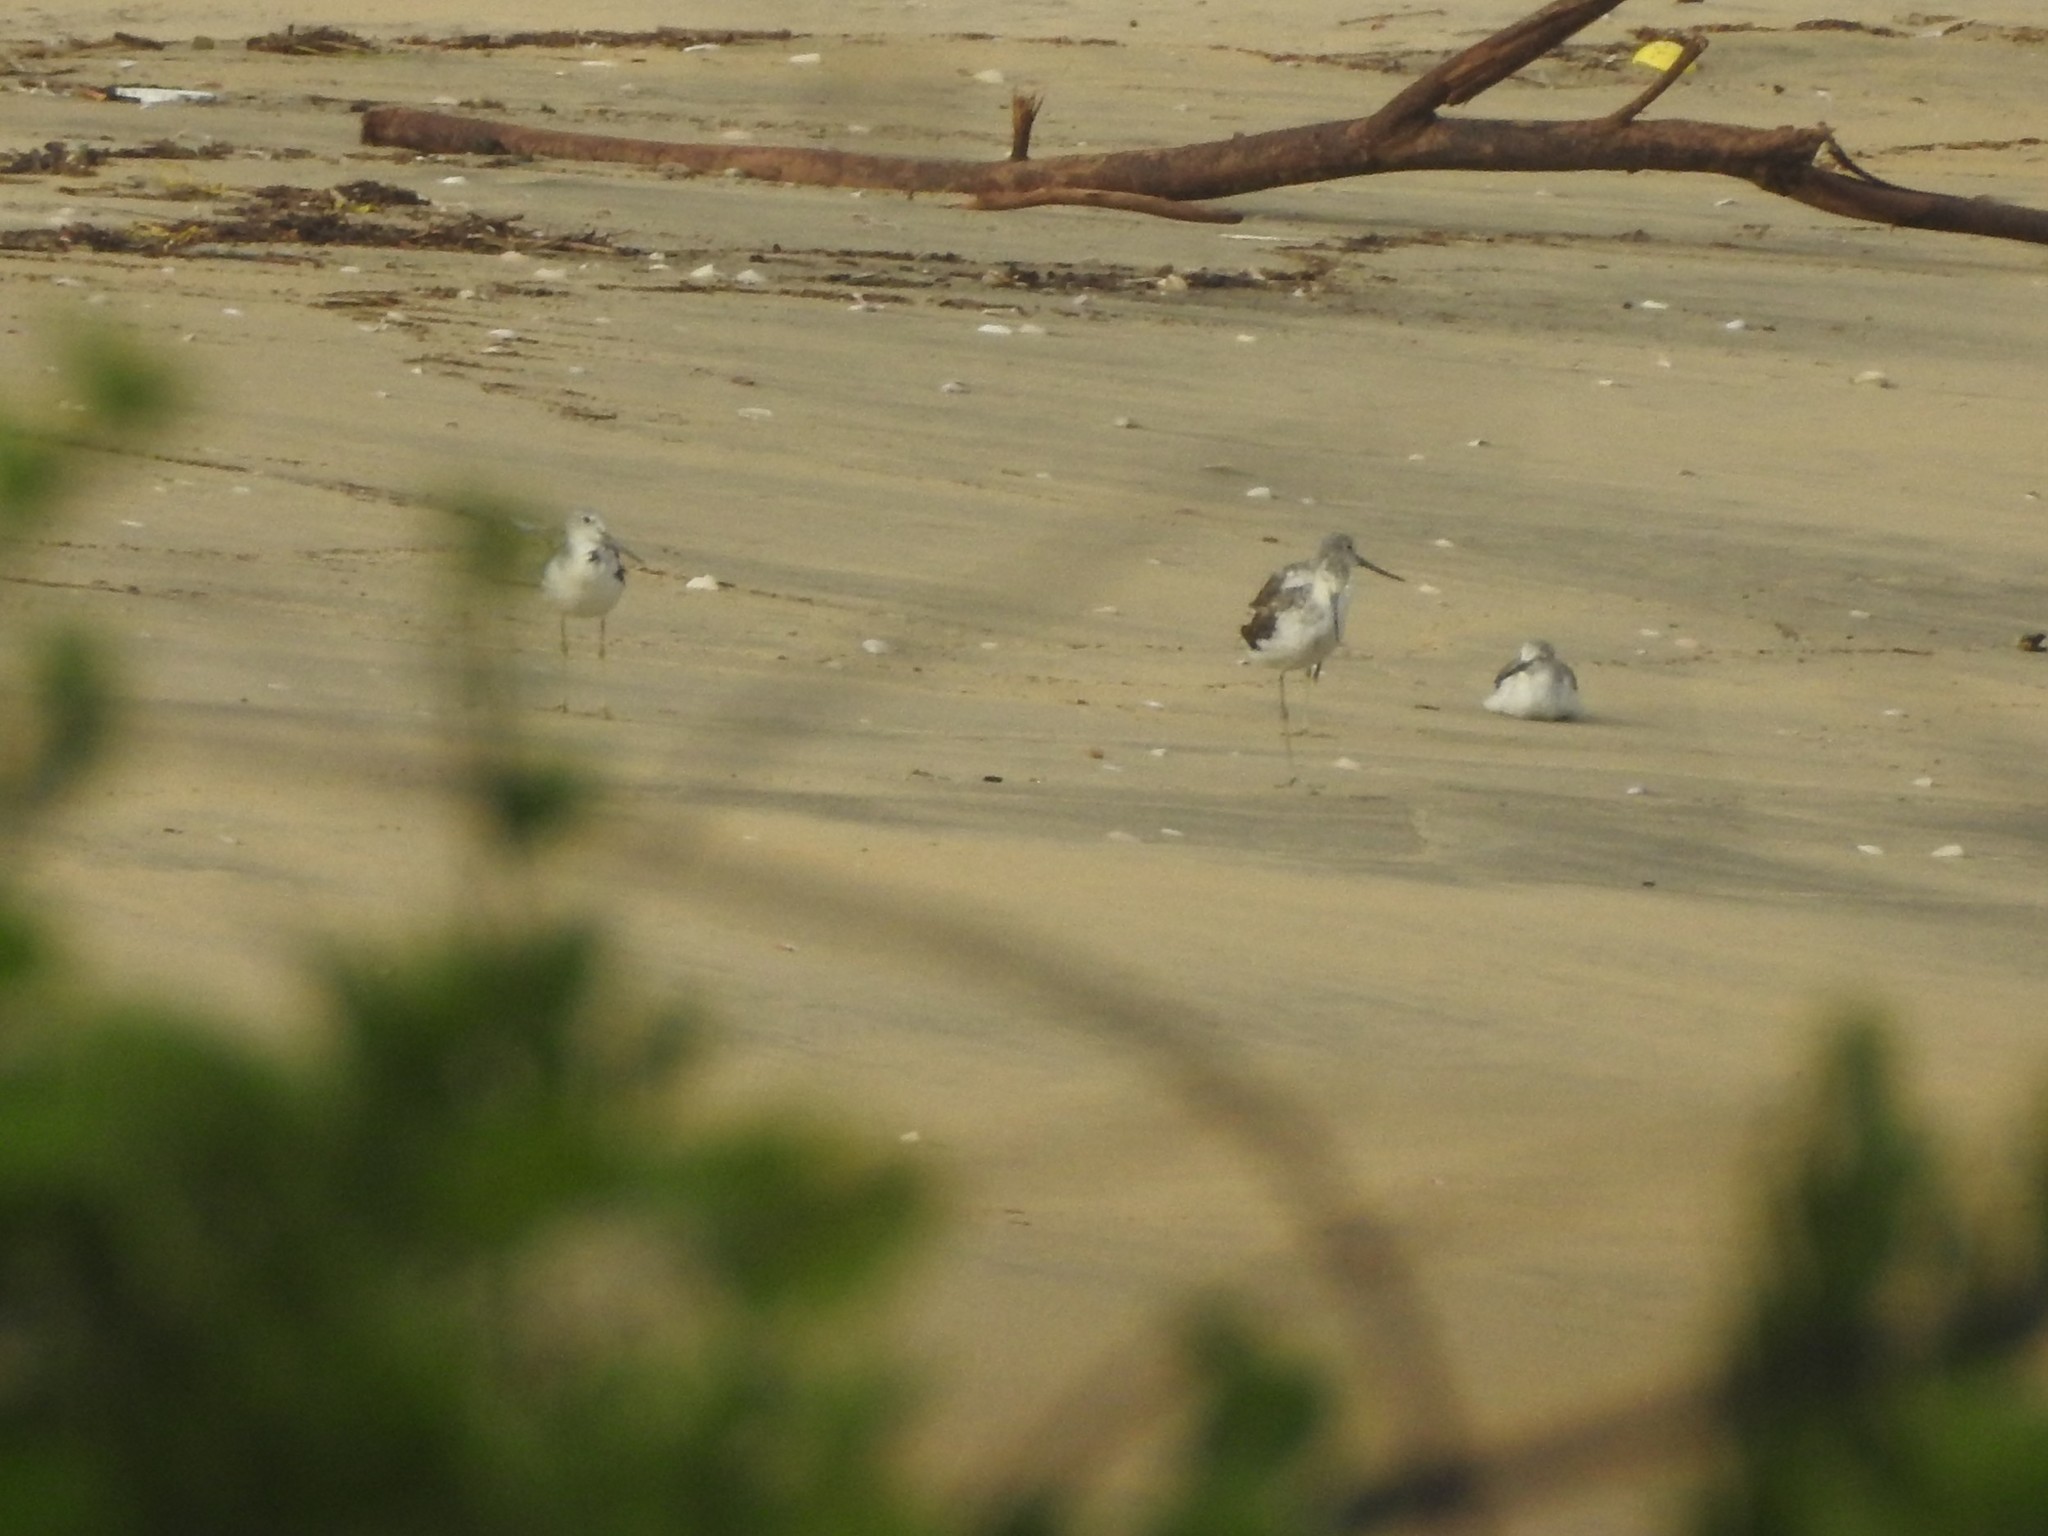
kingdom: Animalia
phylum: Chordata
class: Aves
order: Charadriiformes
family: Scolopacidae
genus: Tringa
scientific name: Tringa nebularia
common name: Common greenshank
